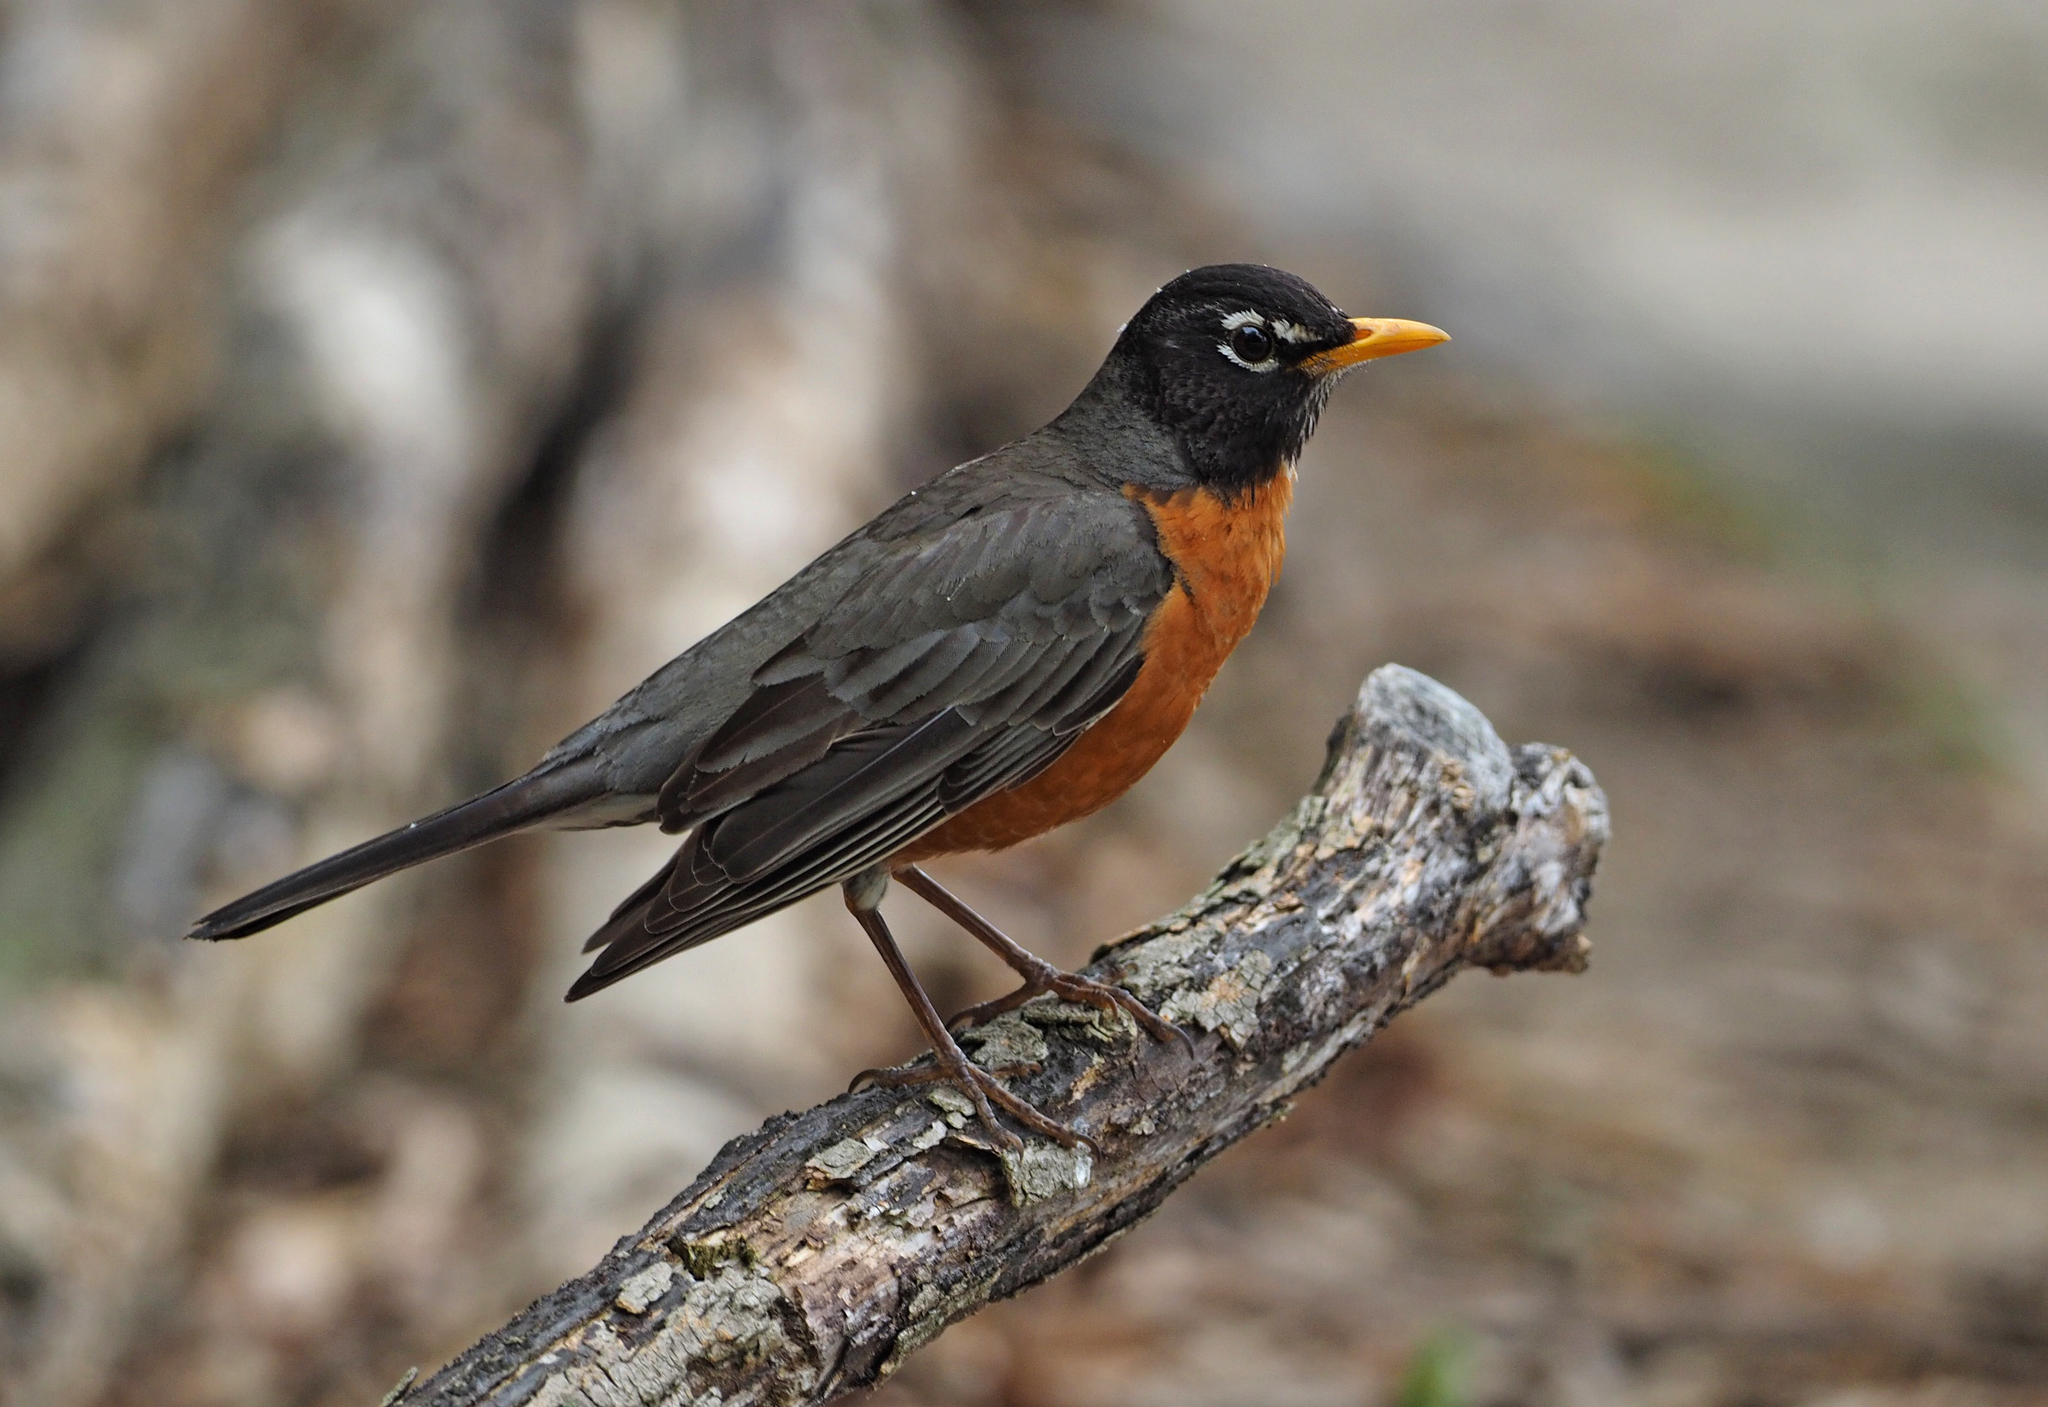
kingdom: Animalia
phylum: Chordata
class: Aves
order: Passeriformes
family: Turdidae
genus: Turdus
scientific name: Turdus migratorius
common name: American robin
